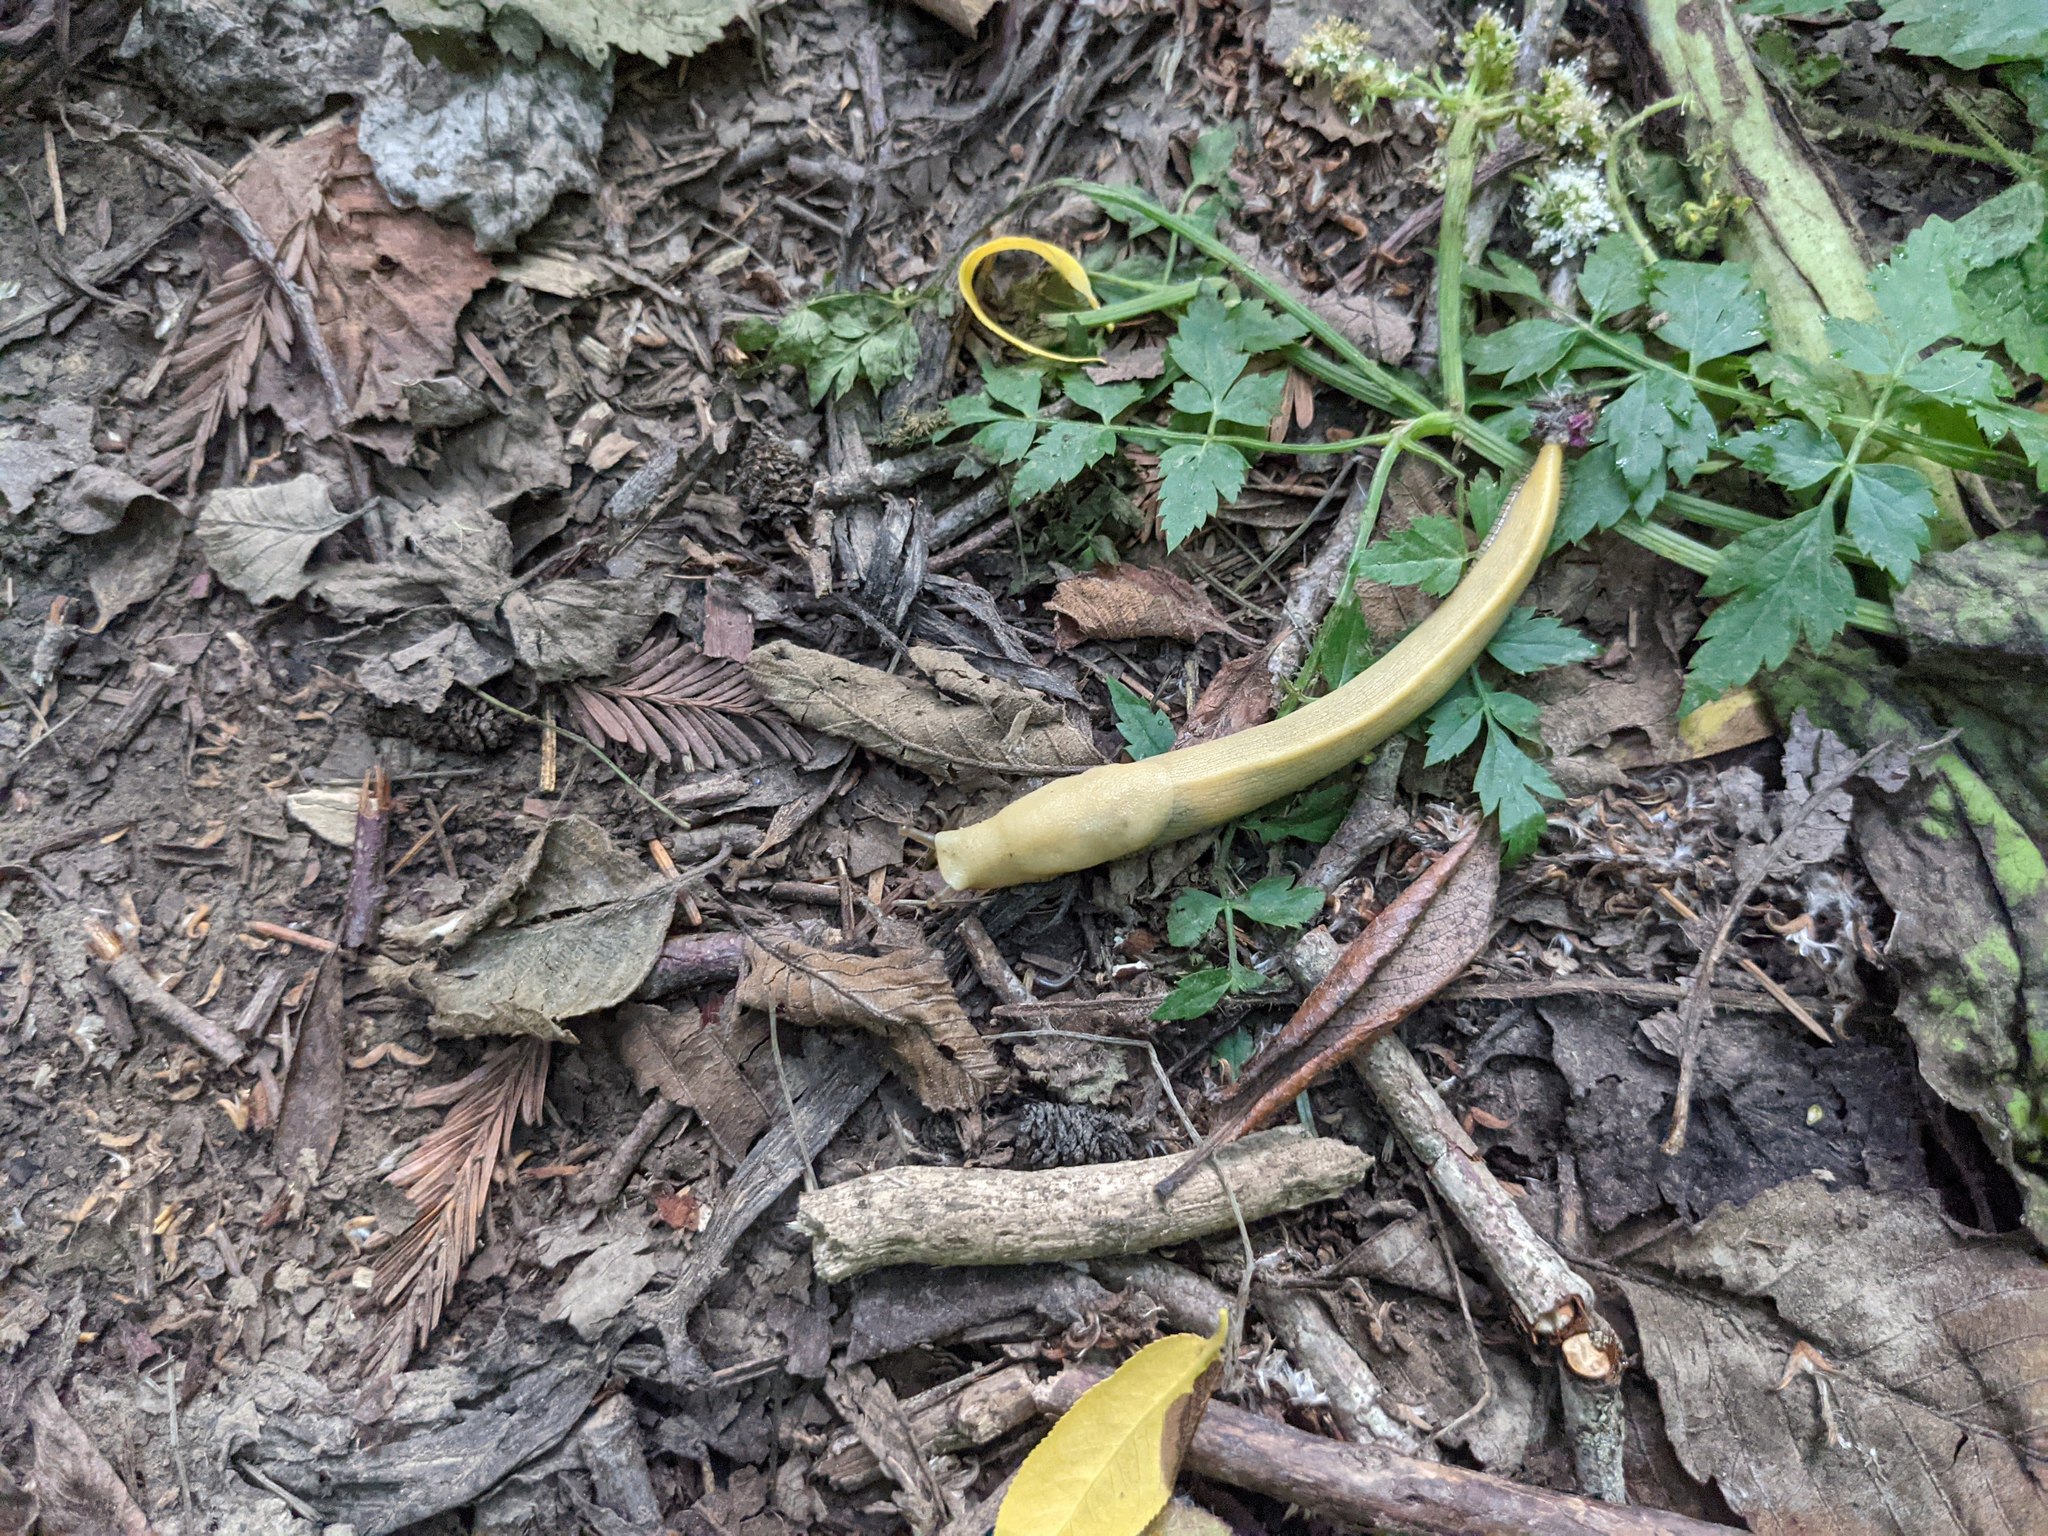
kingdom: Animalia
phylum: Mollusca
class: Gastropoda
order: Stylommatophora
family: Ariolimacidae
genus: Ariolimax
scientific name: Ariolimax columbianus
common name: Pacific banana slug
